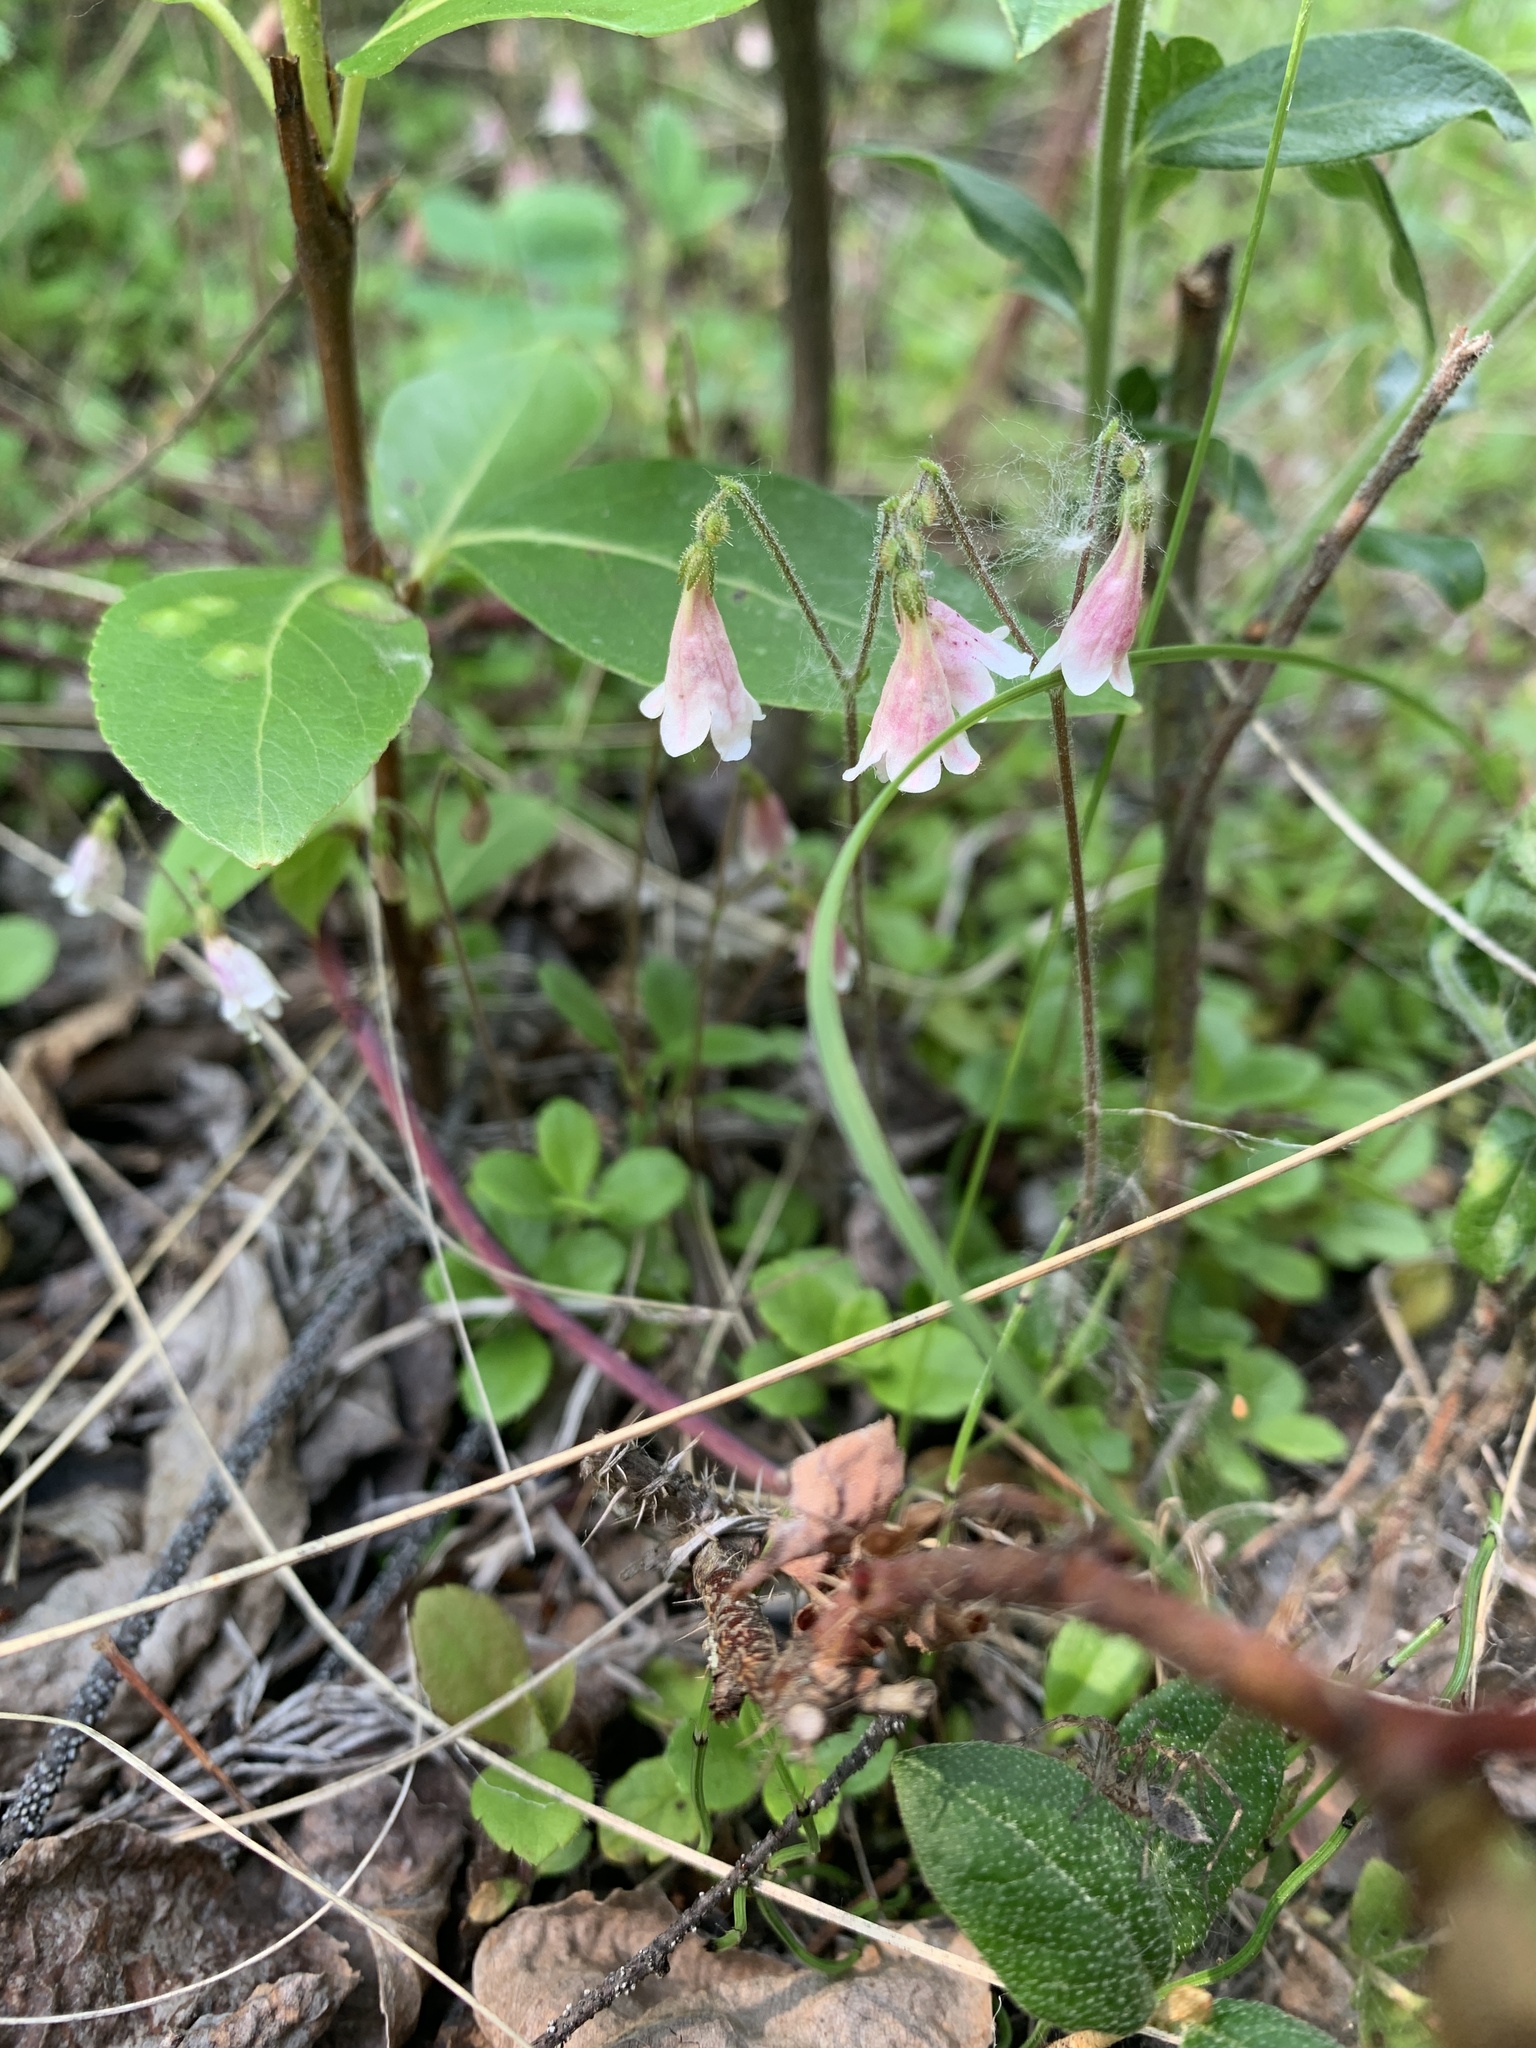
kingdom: Plantae
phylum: Tracheophyta
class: Magnoliopsida
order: Dipsacales
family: Caprifoliaceae
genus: Linnaea
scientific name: Linnaea borealis
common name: Twinflower
